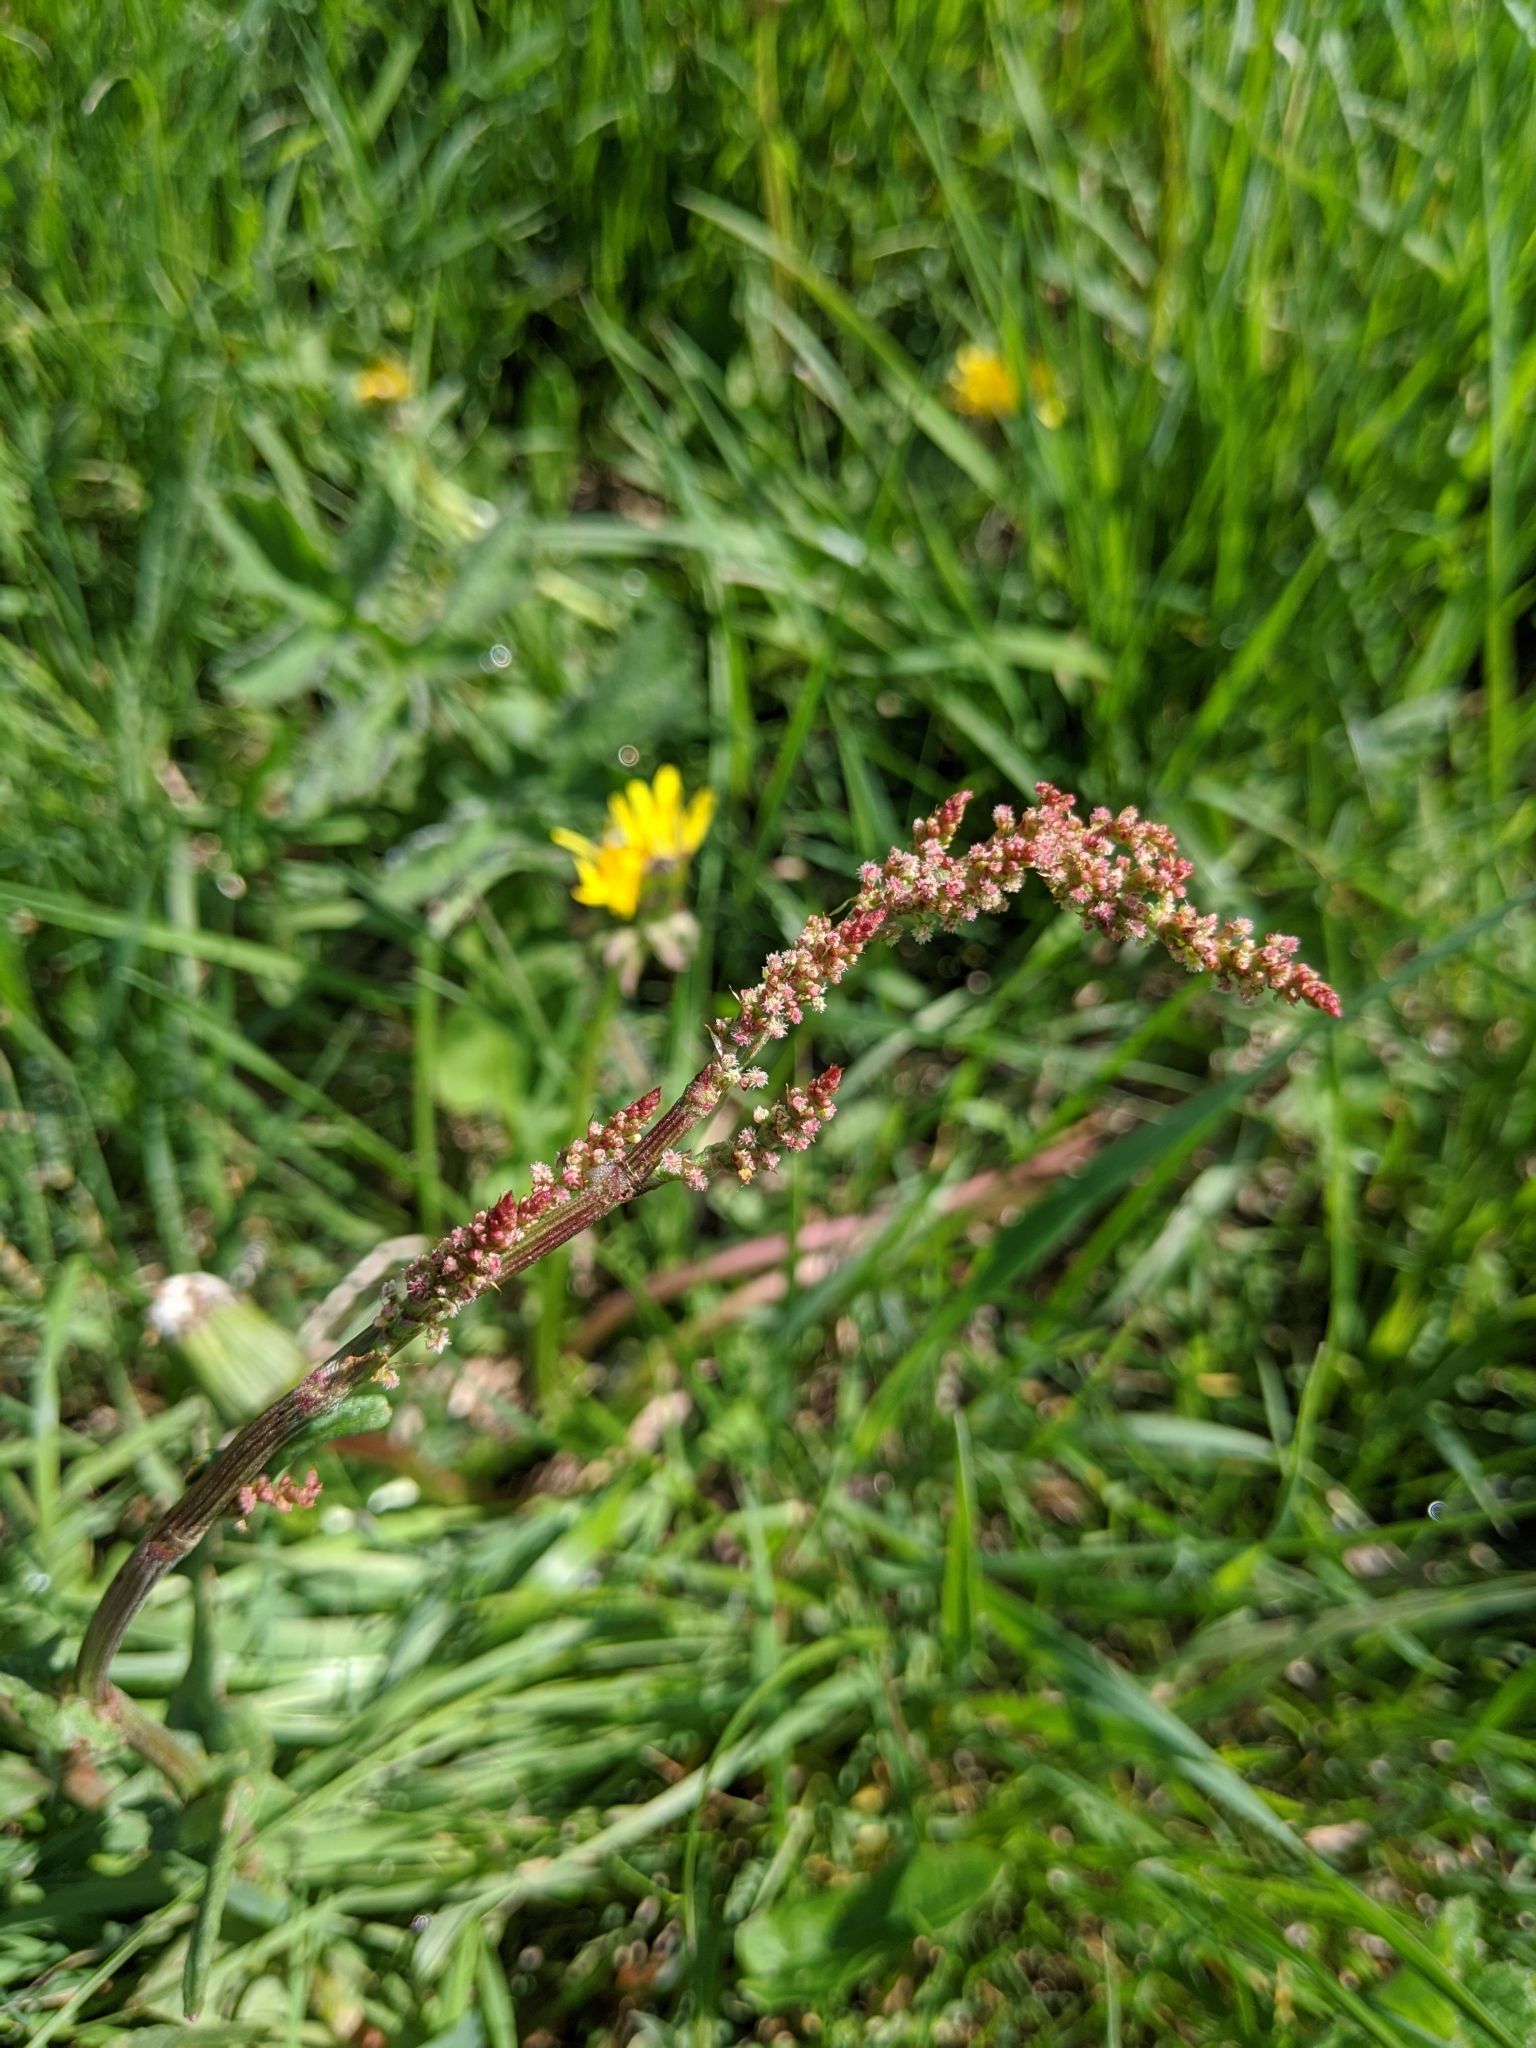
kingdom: Plantae
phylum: Tracheophyta
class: Magnoliopsida
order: Caryophyllales
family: Polygonaceae
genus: Rumex
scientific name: Rumex acetosa
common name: Garden sorrel
